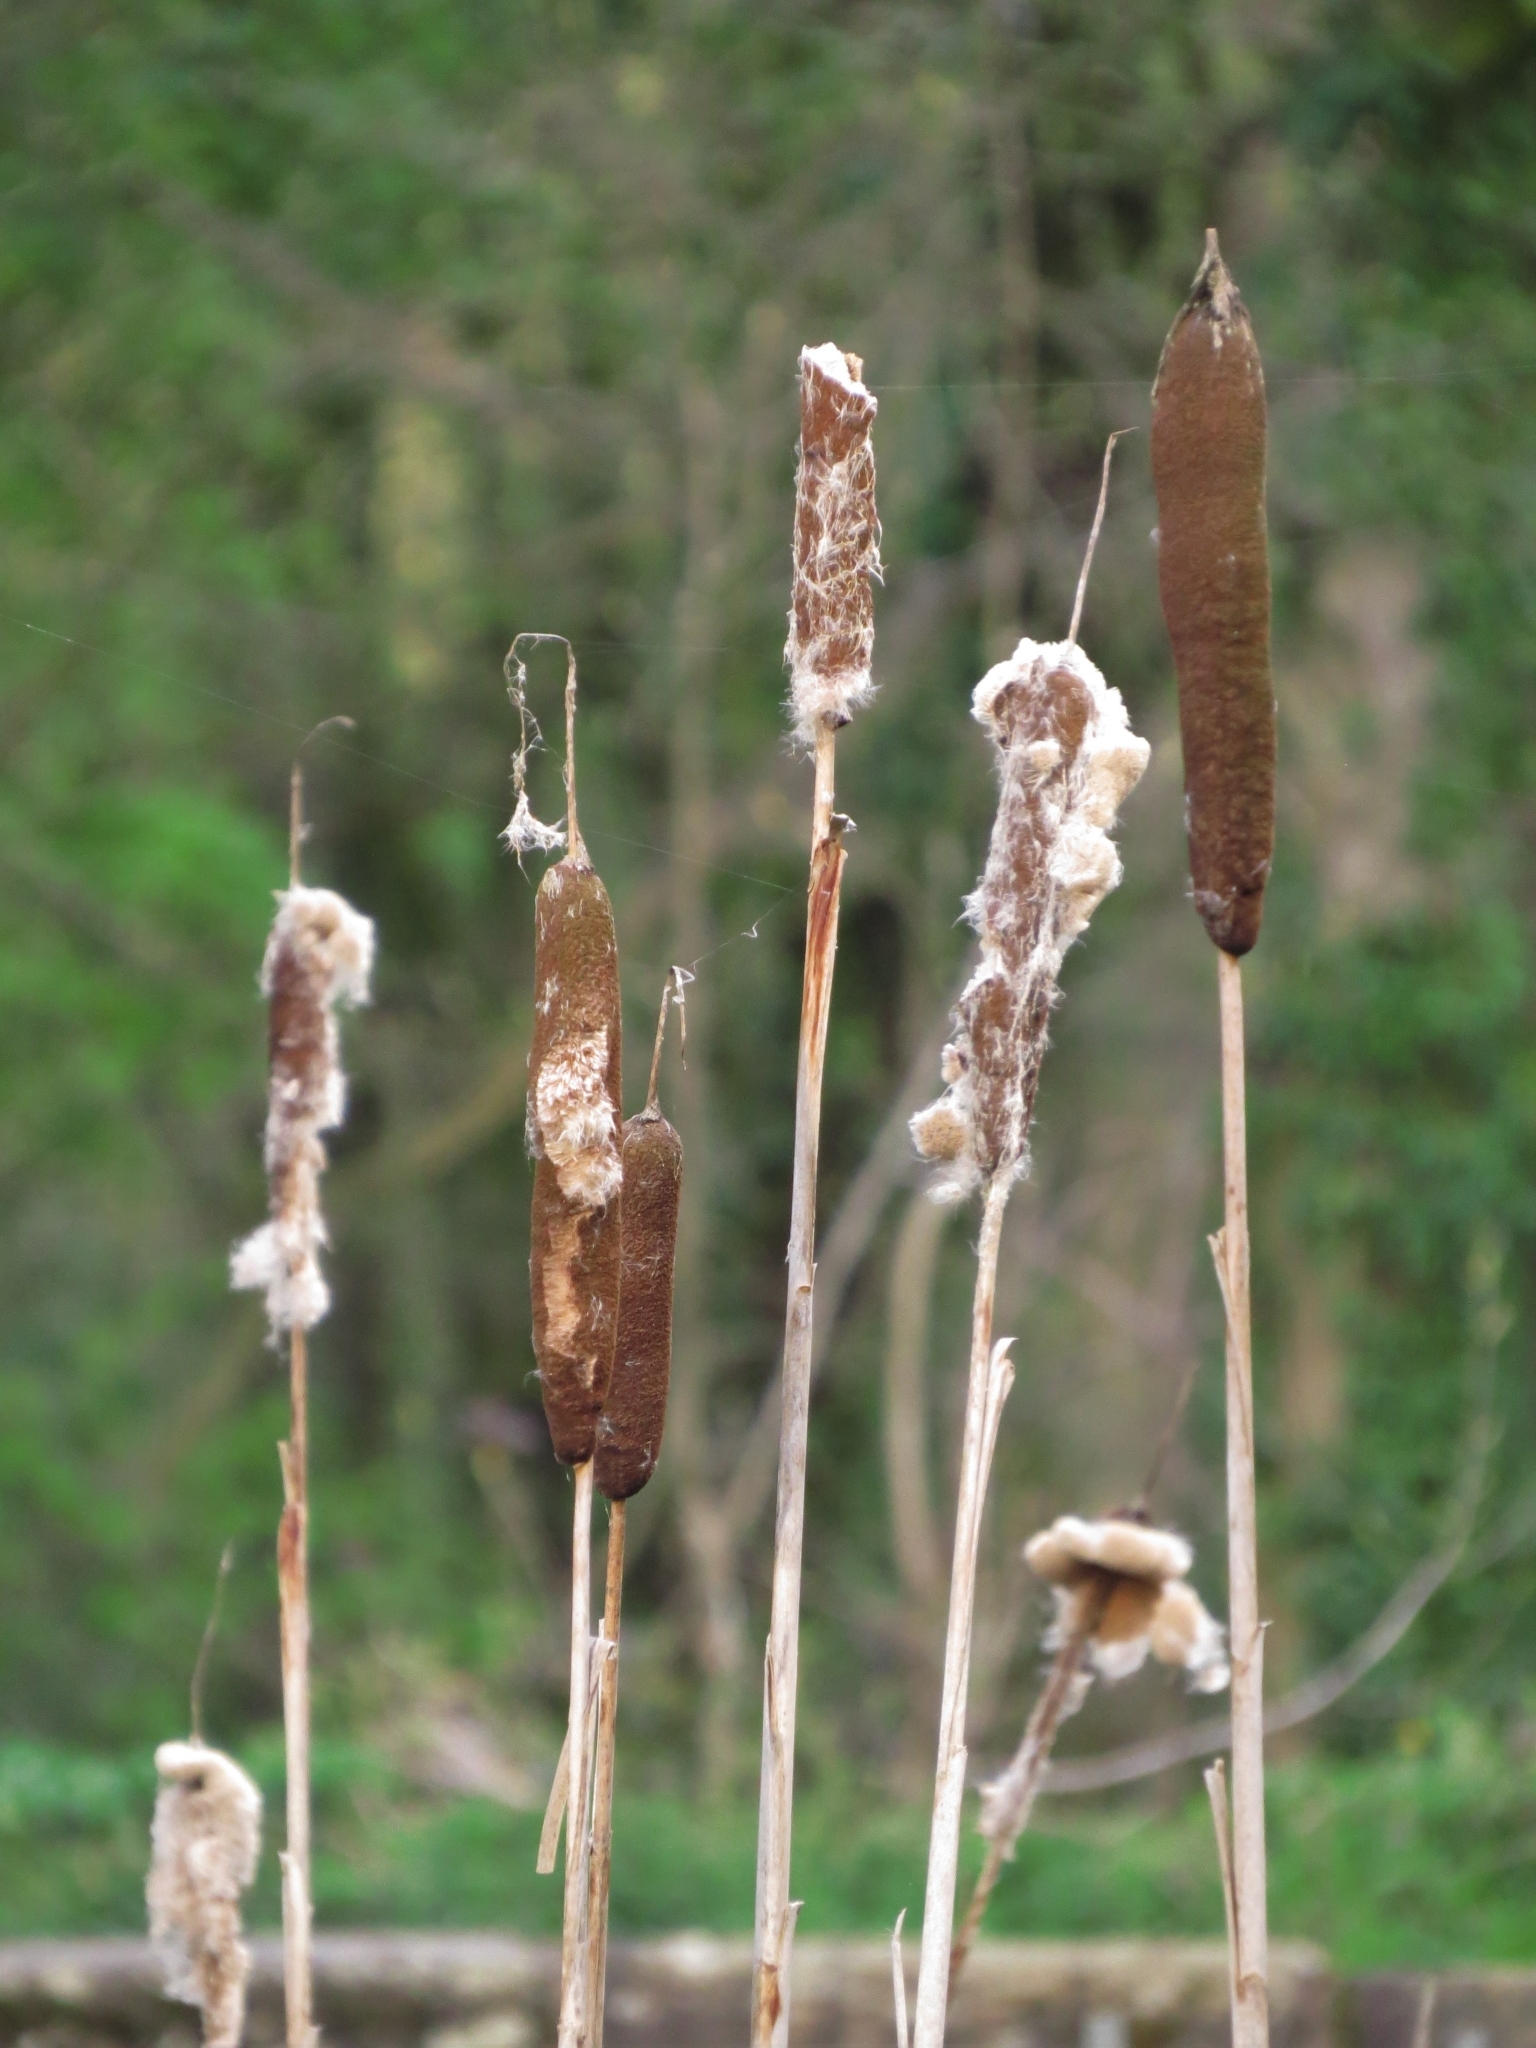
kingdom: Plantae
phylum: Tracheophyta
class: Liliopsida
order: Poales
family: Typhaceae
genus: Typha
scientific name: Typha latifolia
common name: Broadleaf cattail
